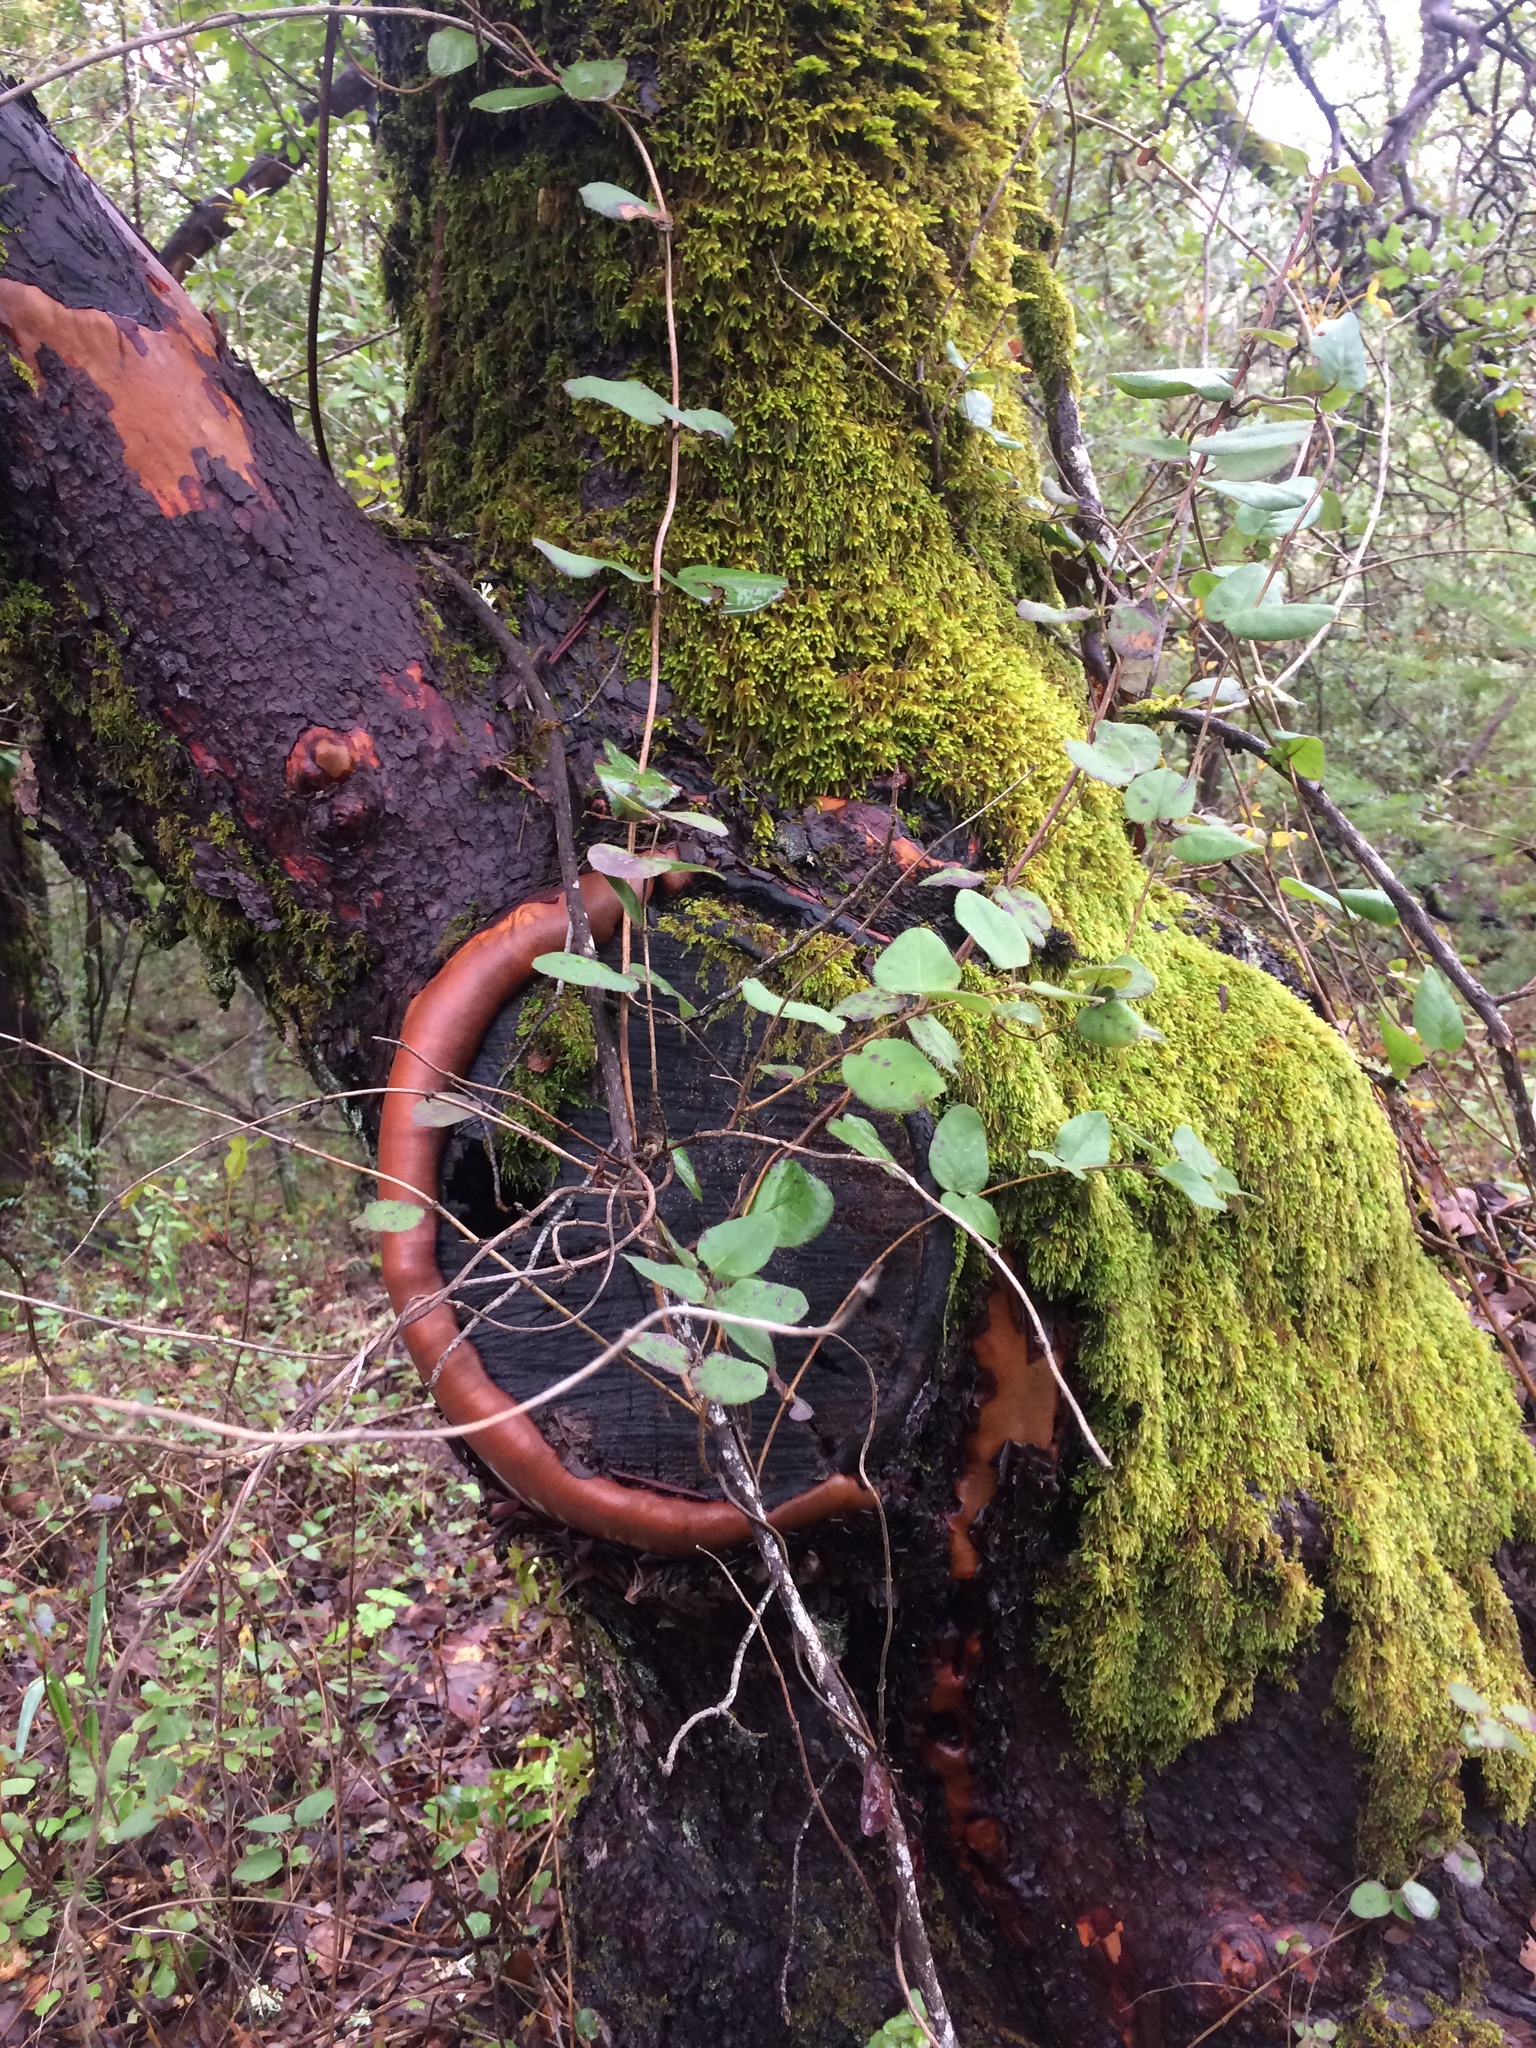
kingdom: Plantae
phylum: Tracheophyta
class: Magnoliopsida
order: Dipsacales
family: Caprifoliaceae
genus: Lonicera
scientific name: Lonicera hispidula
